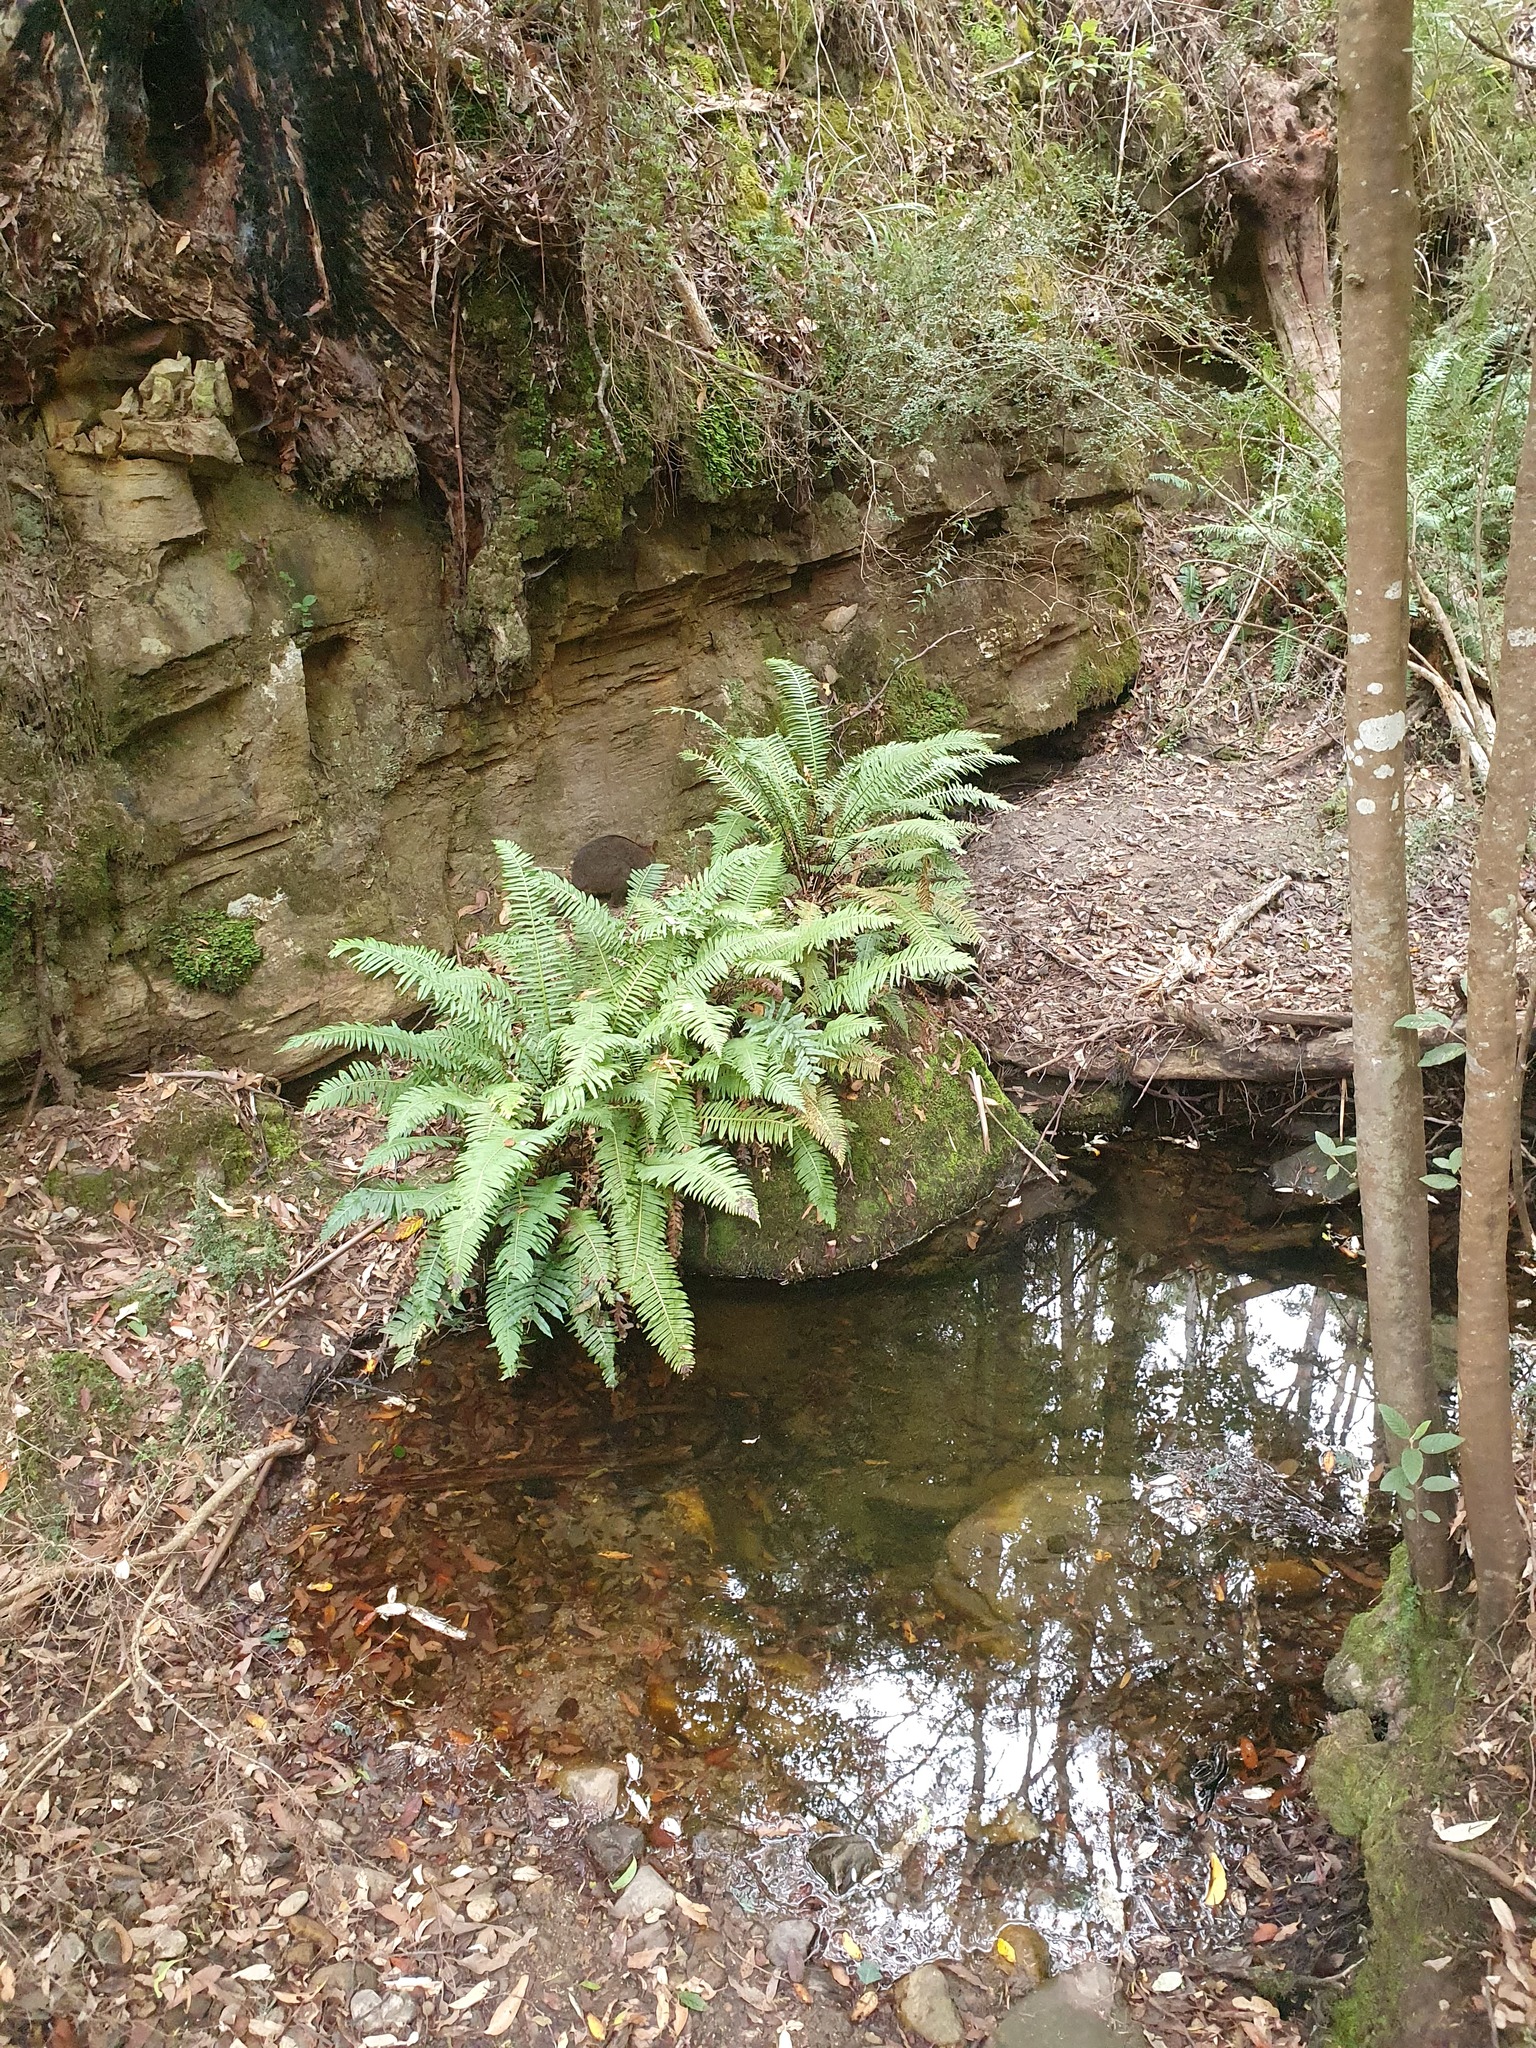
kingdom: Plantae
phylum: Tracheophyta
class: Polypodiopsida
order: Polypodiales
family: Blechnaceae
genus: Lomaria
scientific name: Lomaria nuda
